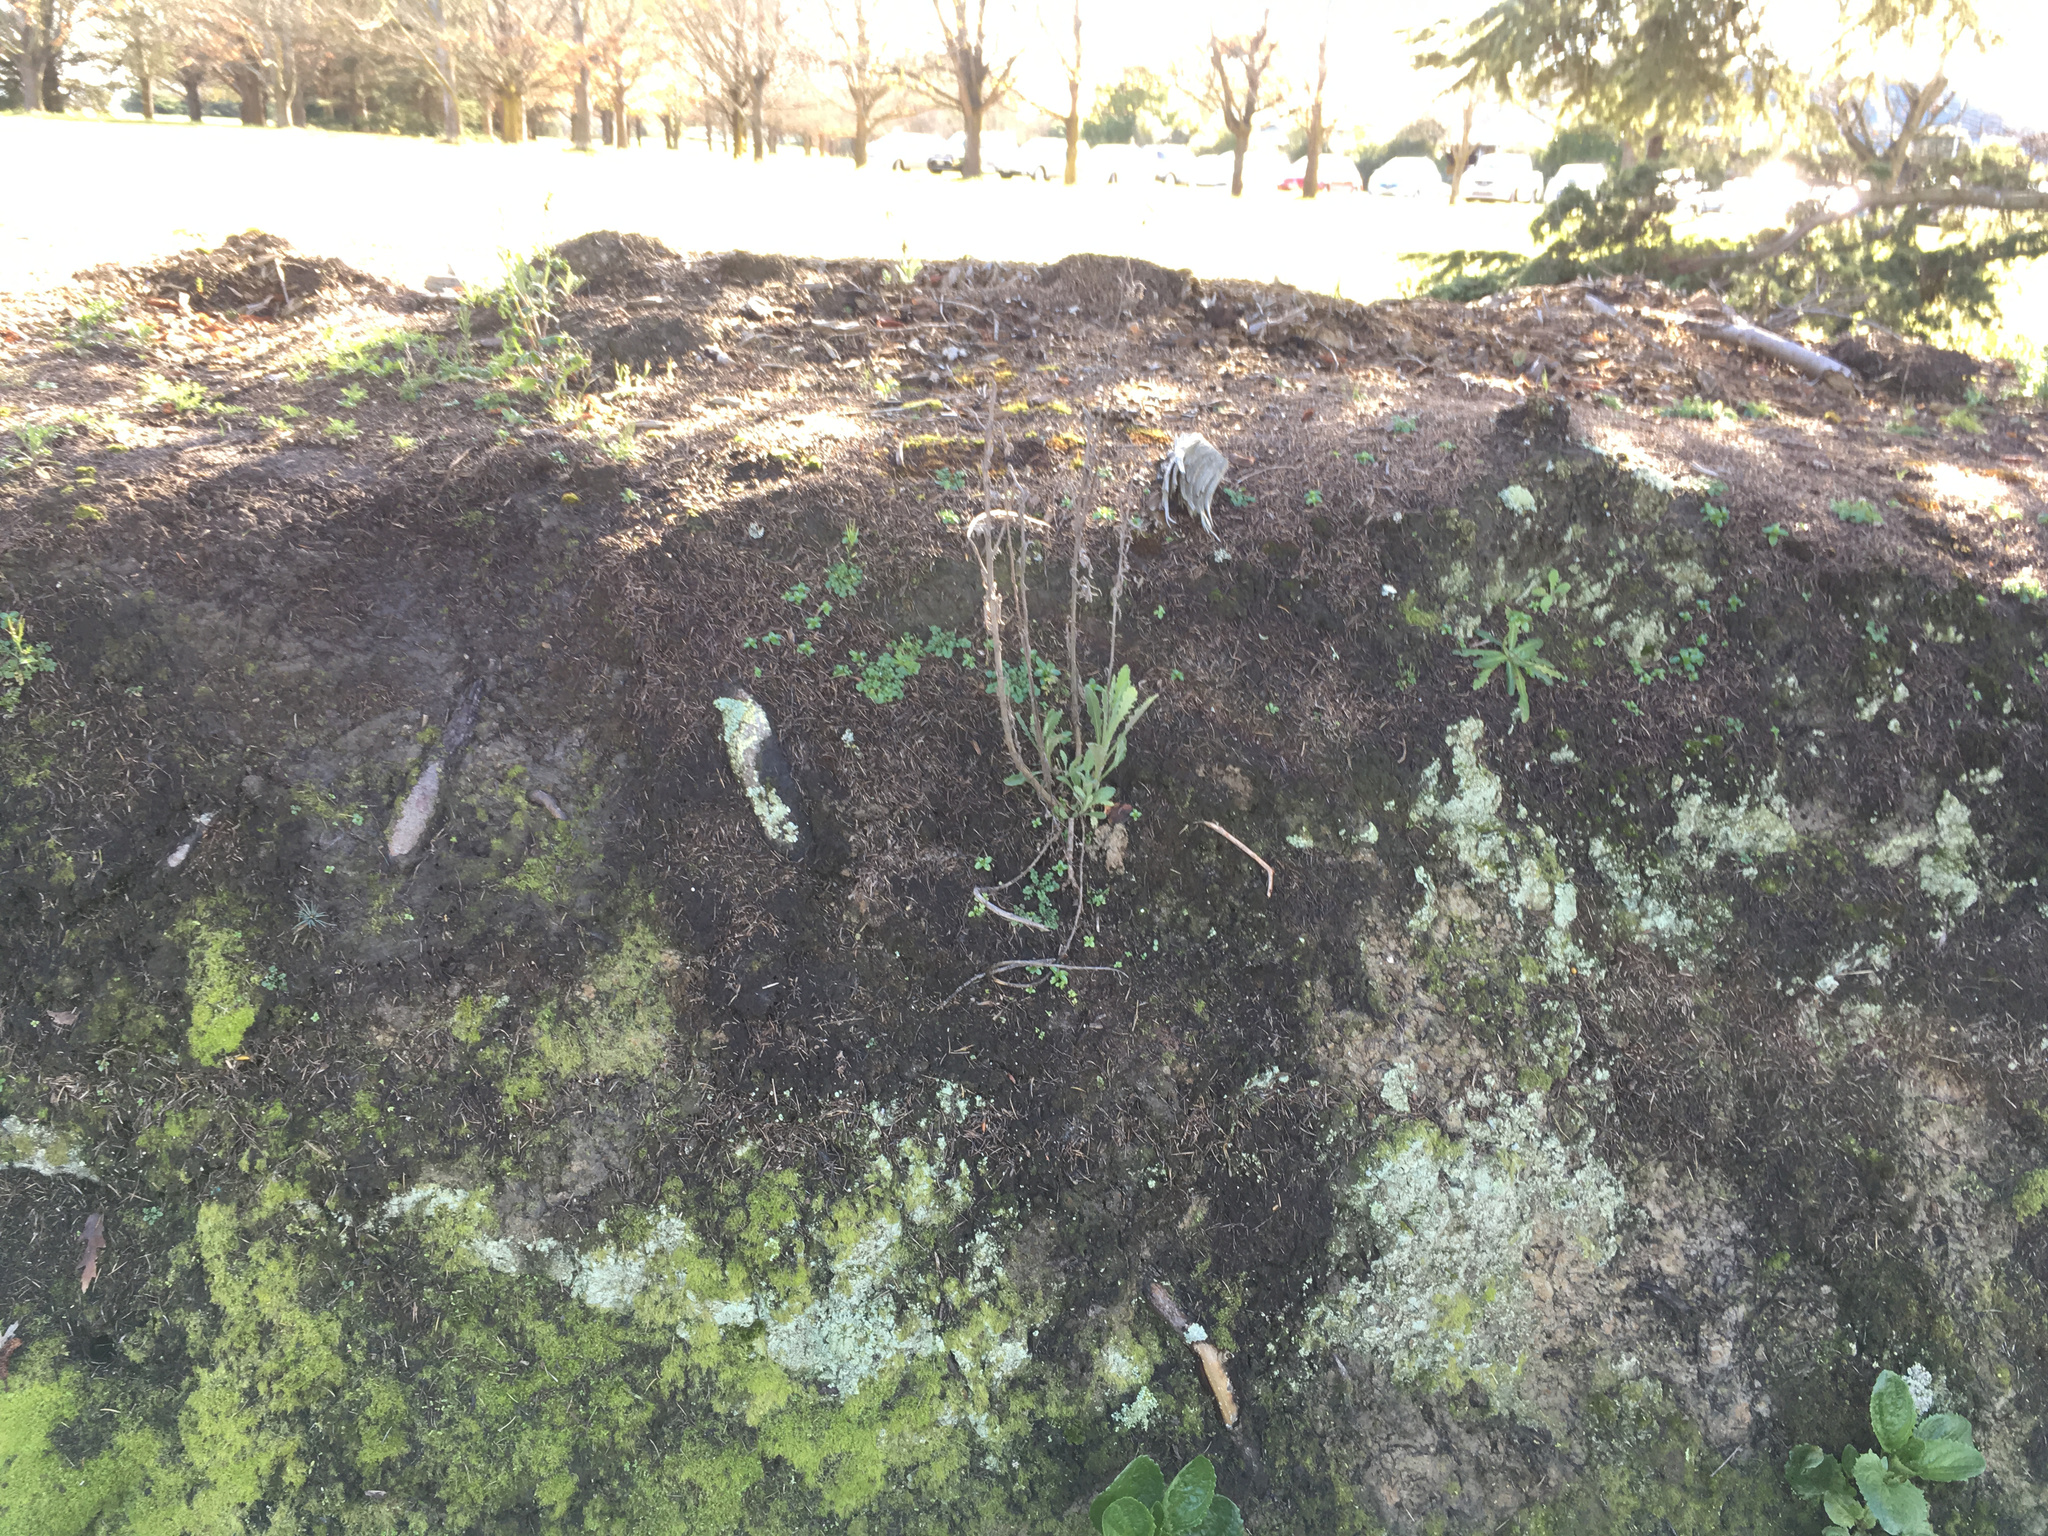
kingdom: Plantae
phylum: Tracheophyta
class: Magnoliopsida
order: Asterales
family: Asteraceae
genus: Senecio
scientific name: Senecio glomeratus
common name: Cutleaf burnweed
